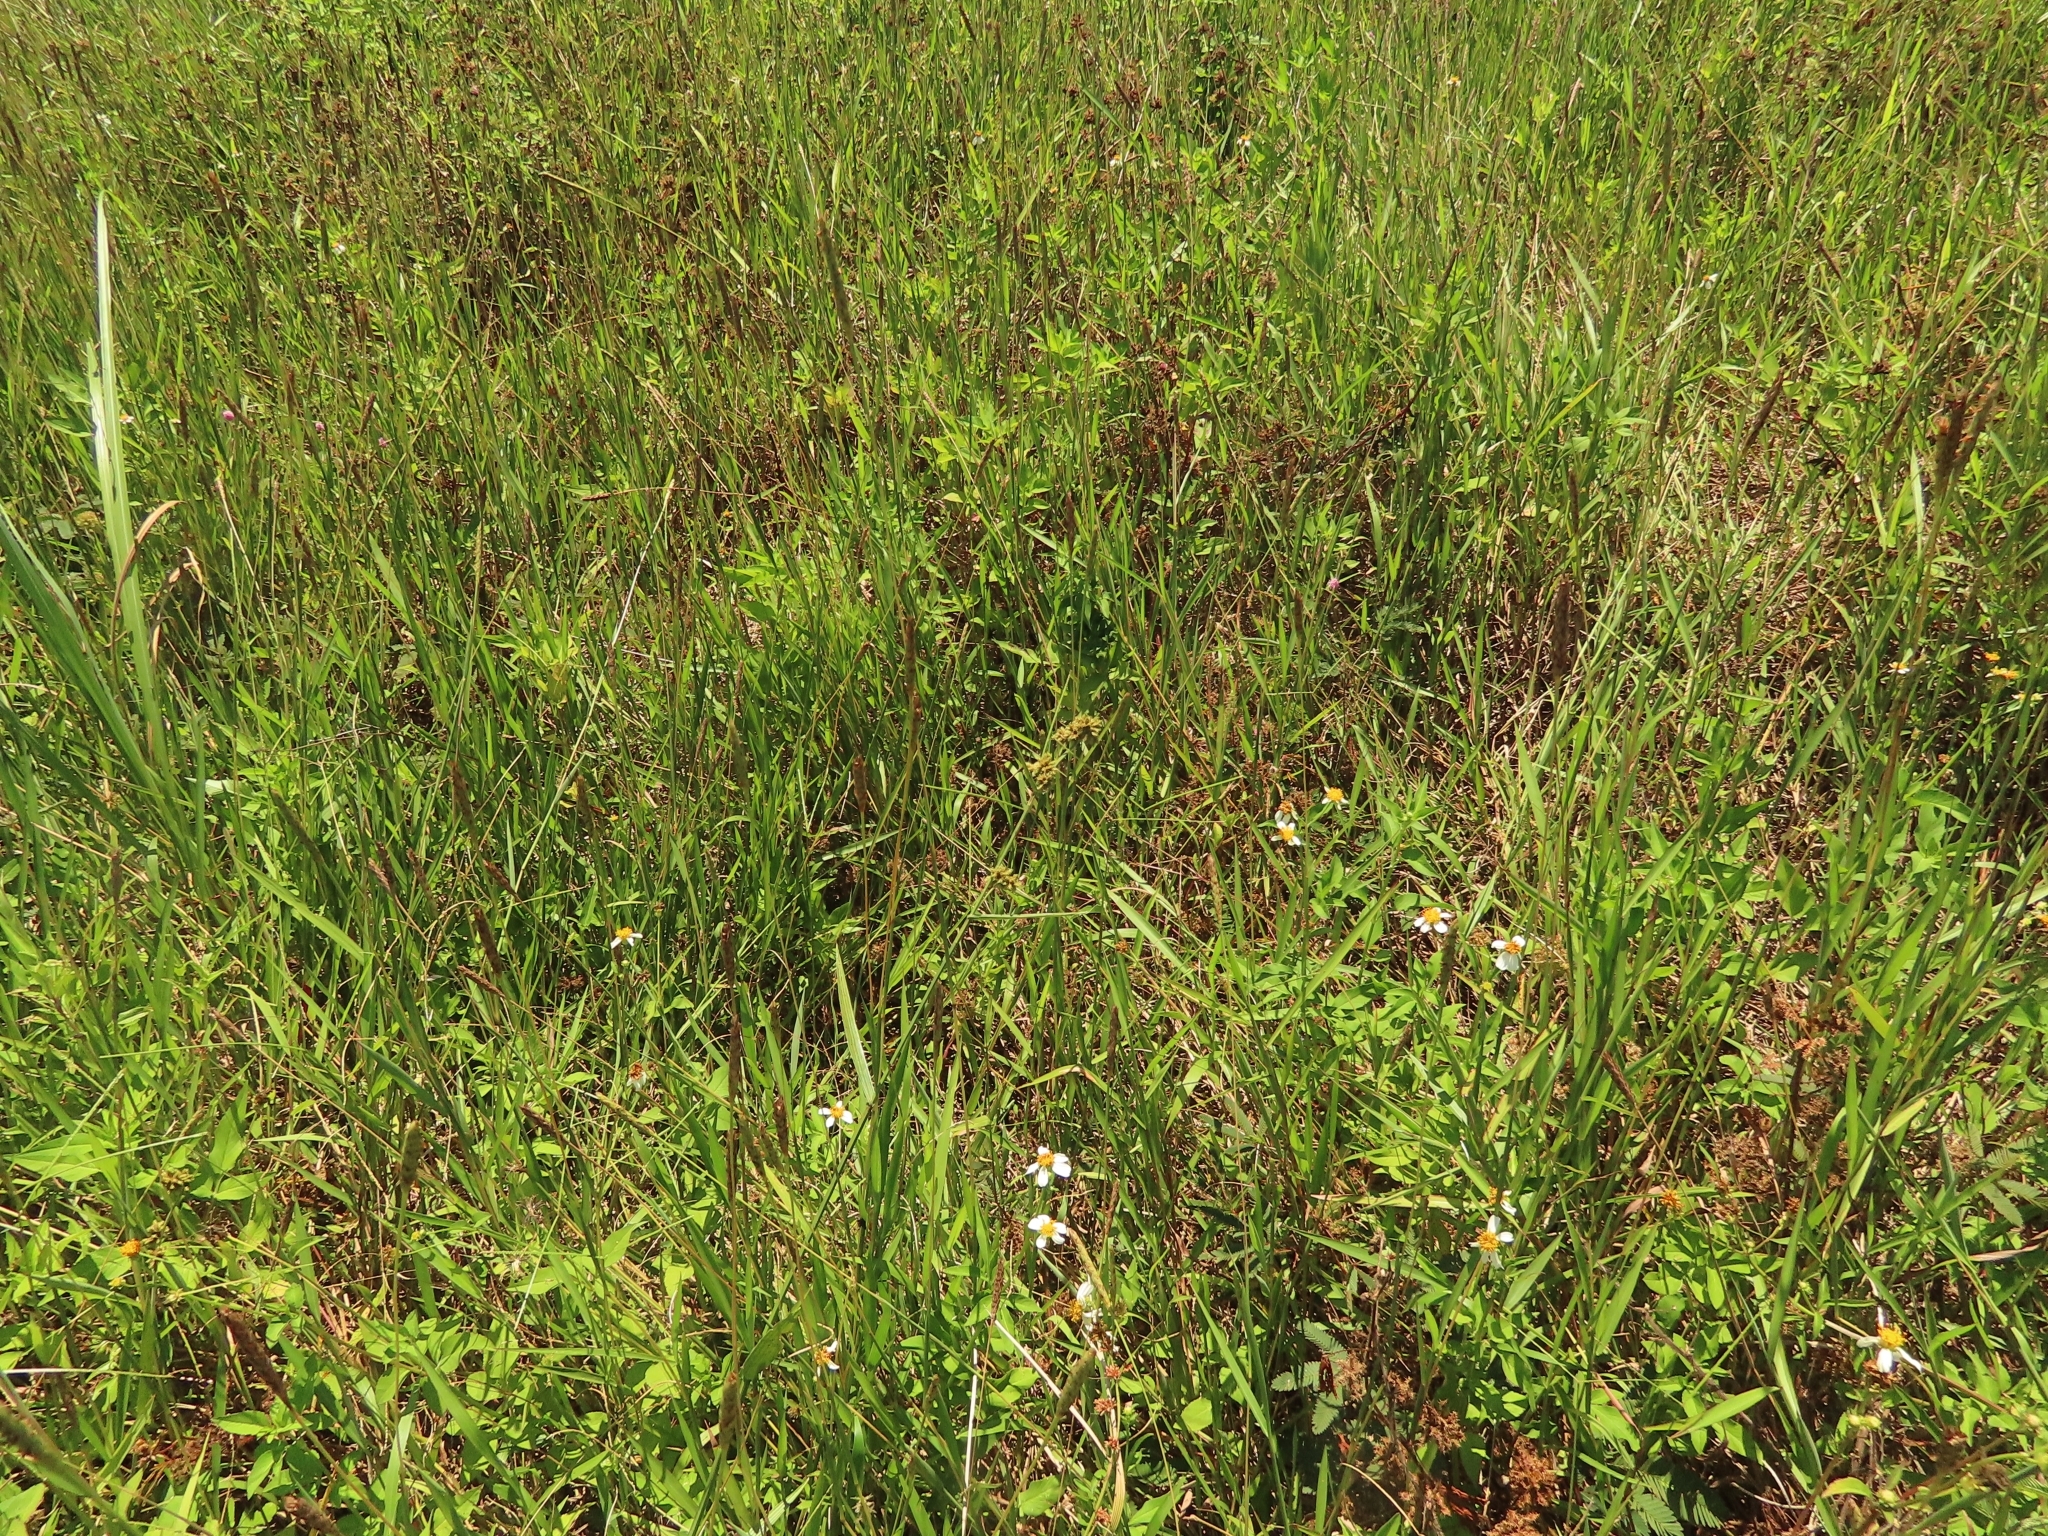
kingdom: Plantae
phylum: Tracheophyta
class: Liliopsida
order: Poales
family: Cyperaceae
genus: Fuirena
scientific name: Fuirena umbellata
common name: Yefen
